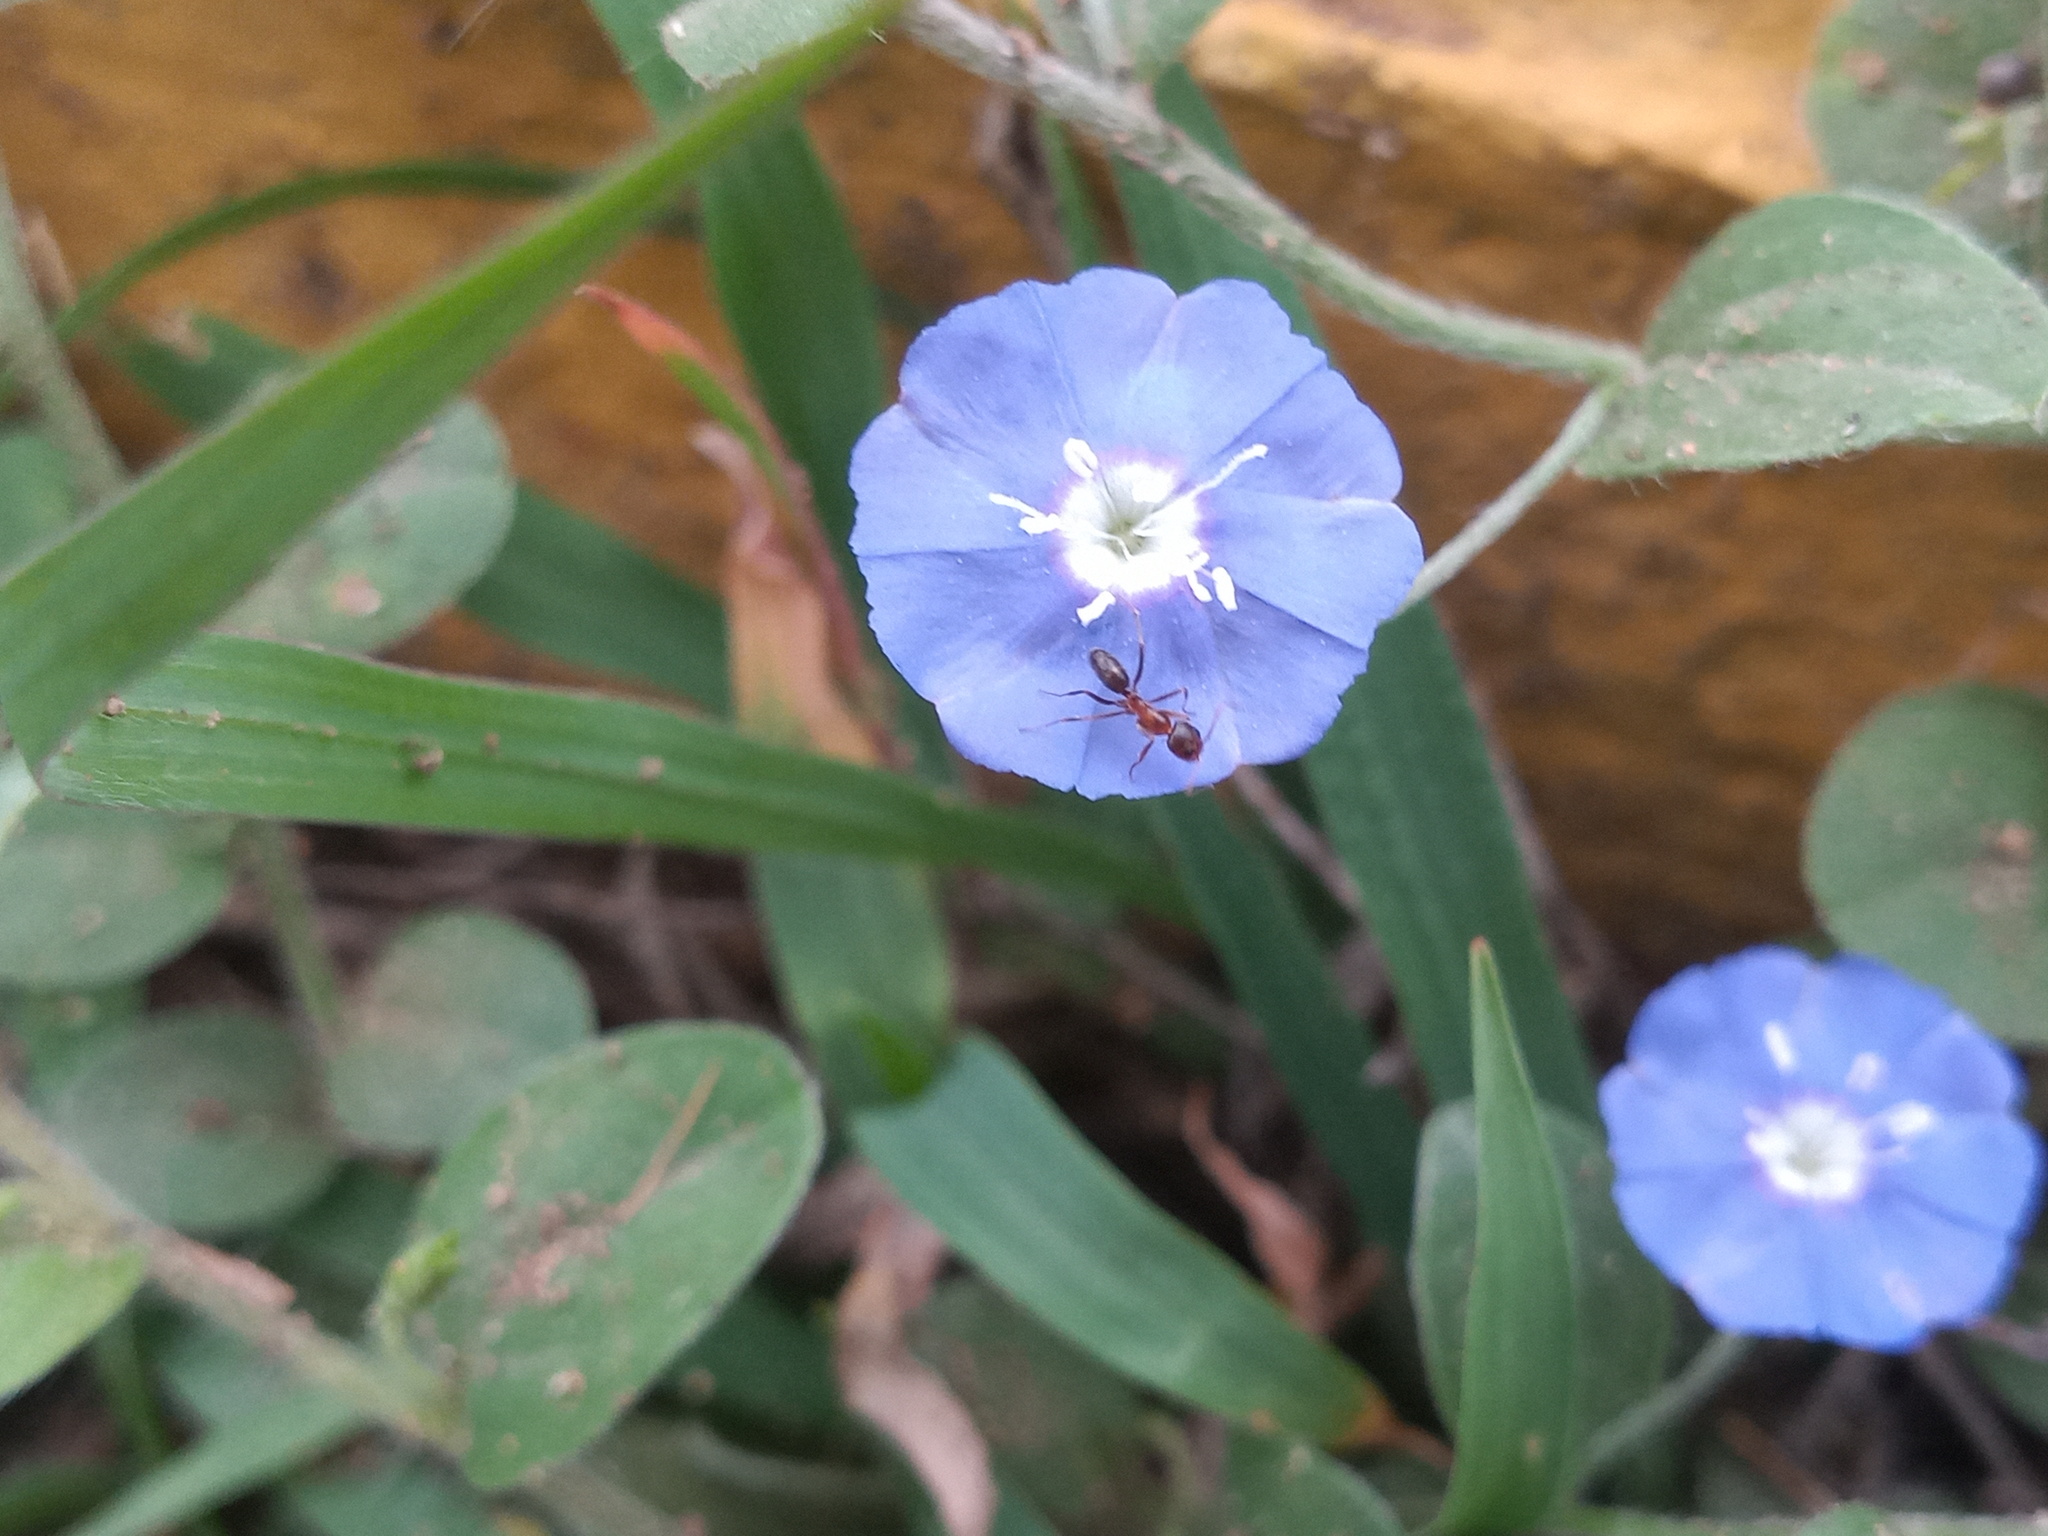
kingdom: Plantae
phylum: Tracheophyta
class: Magnoliopsida
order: Solanales
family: Convolvulaceae
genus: Evolvulus
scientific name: Evolvulus alsinoides
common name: Slender dwarf morning-glory
